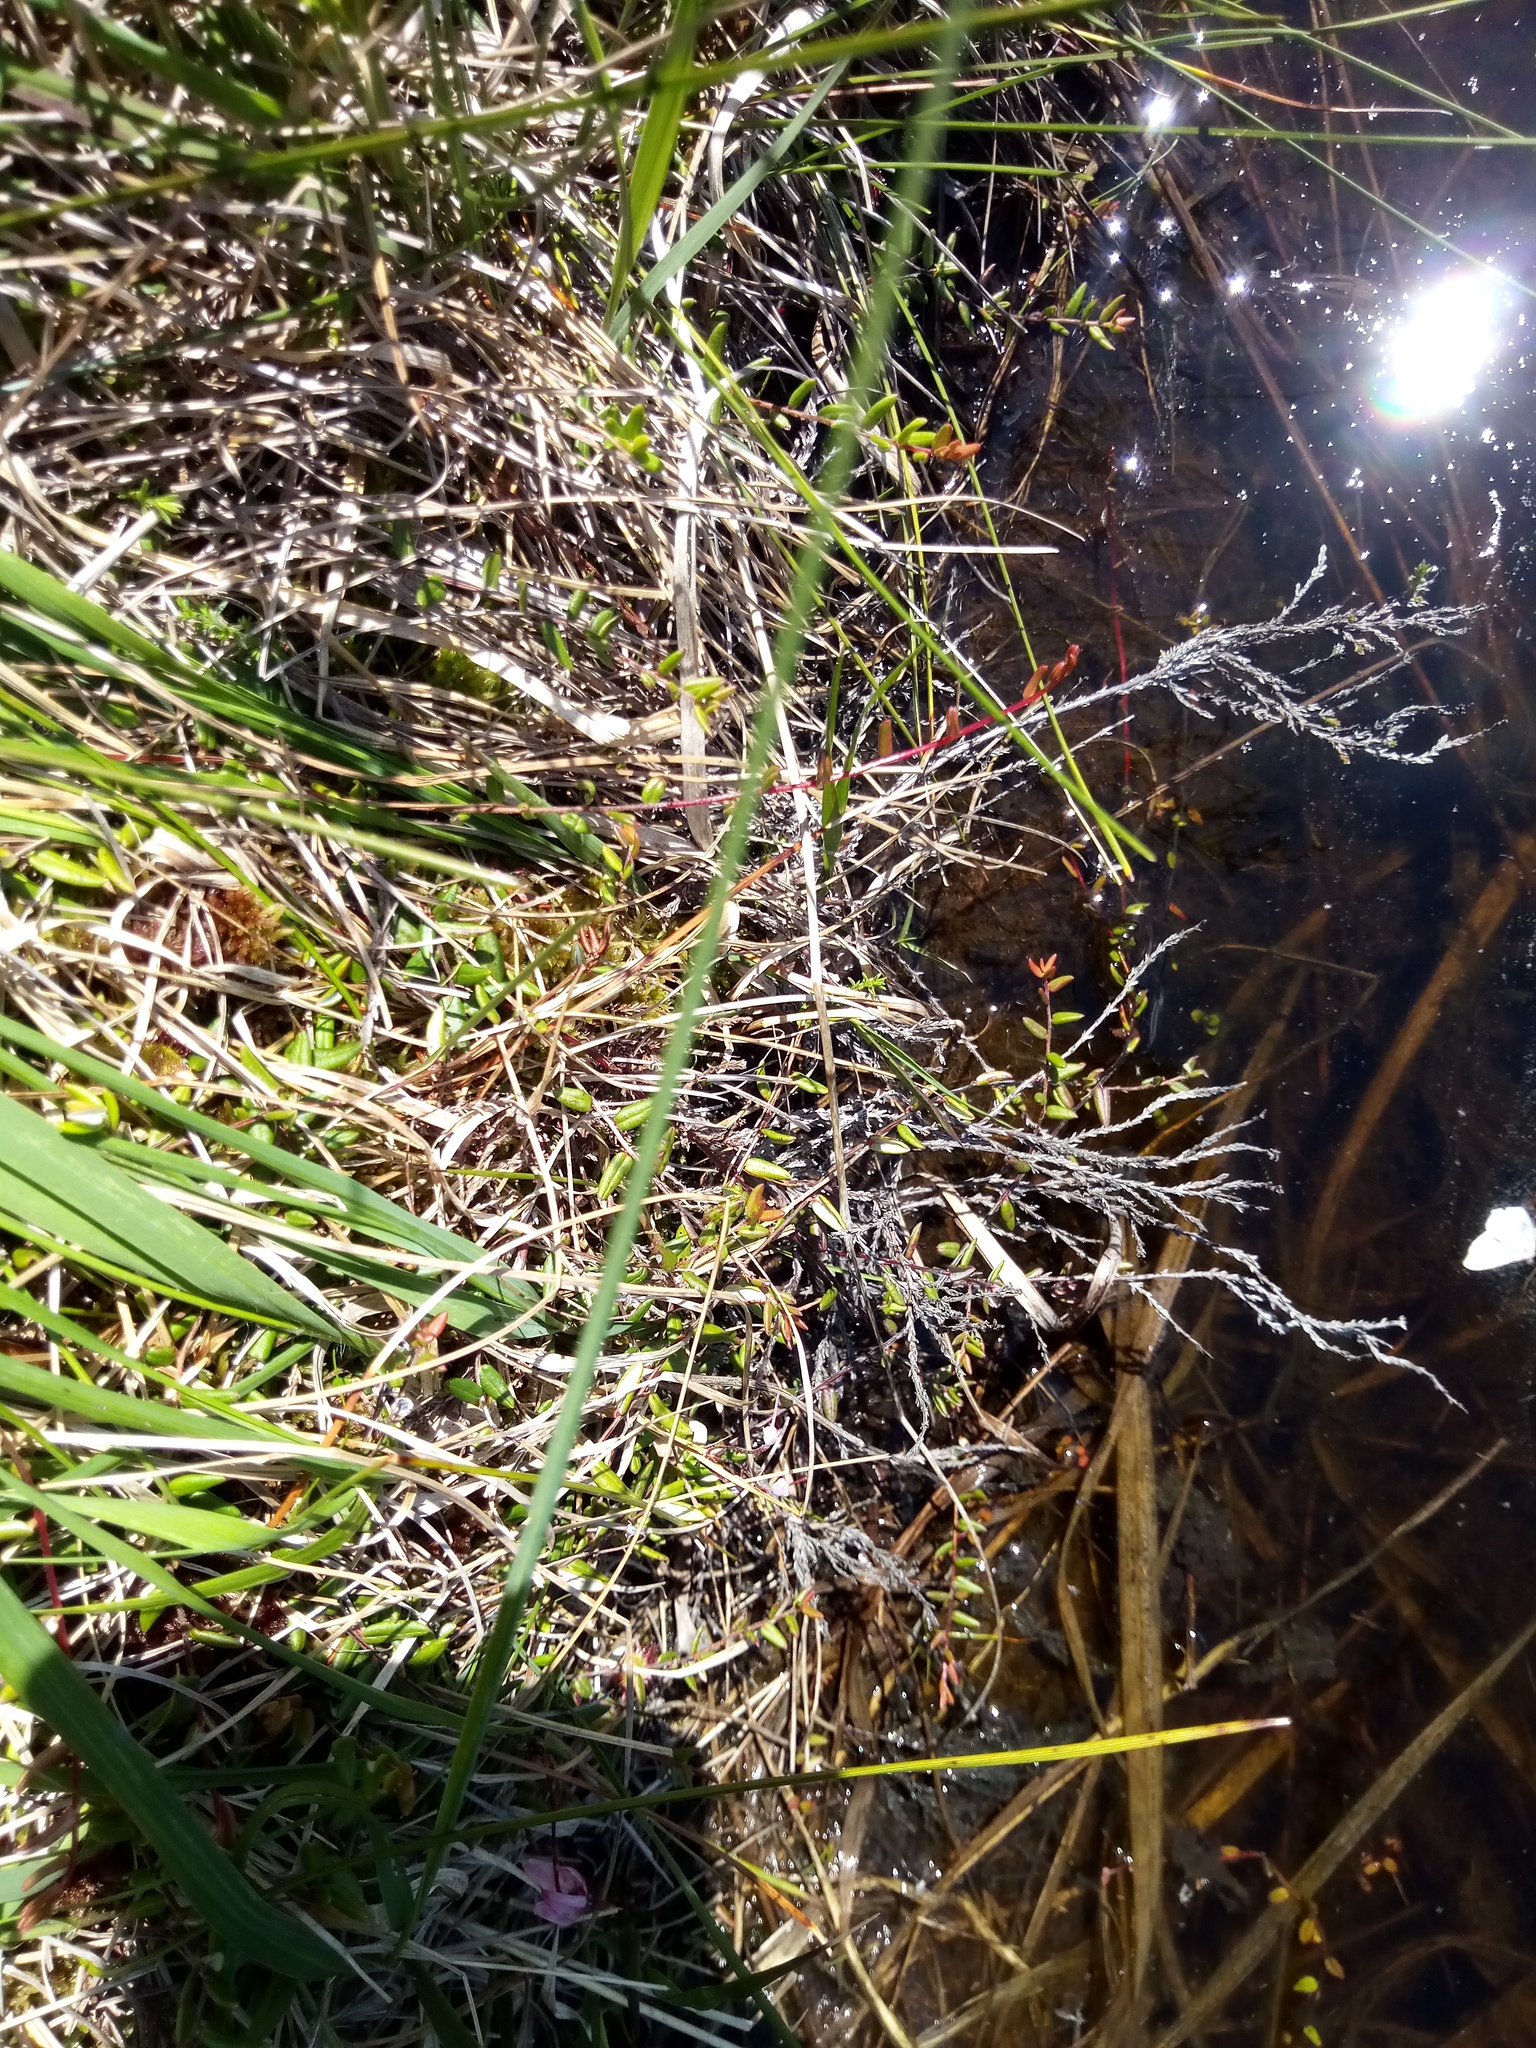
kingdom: Plantae
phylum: Tracheophyta
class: Magnoliopsida
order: Ericales
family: Ericaceae
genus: Vaccinium
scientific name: Vaccinium oxycoccos
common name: Cranberry
